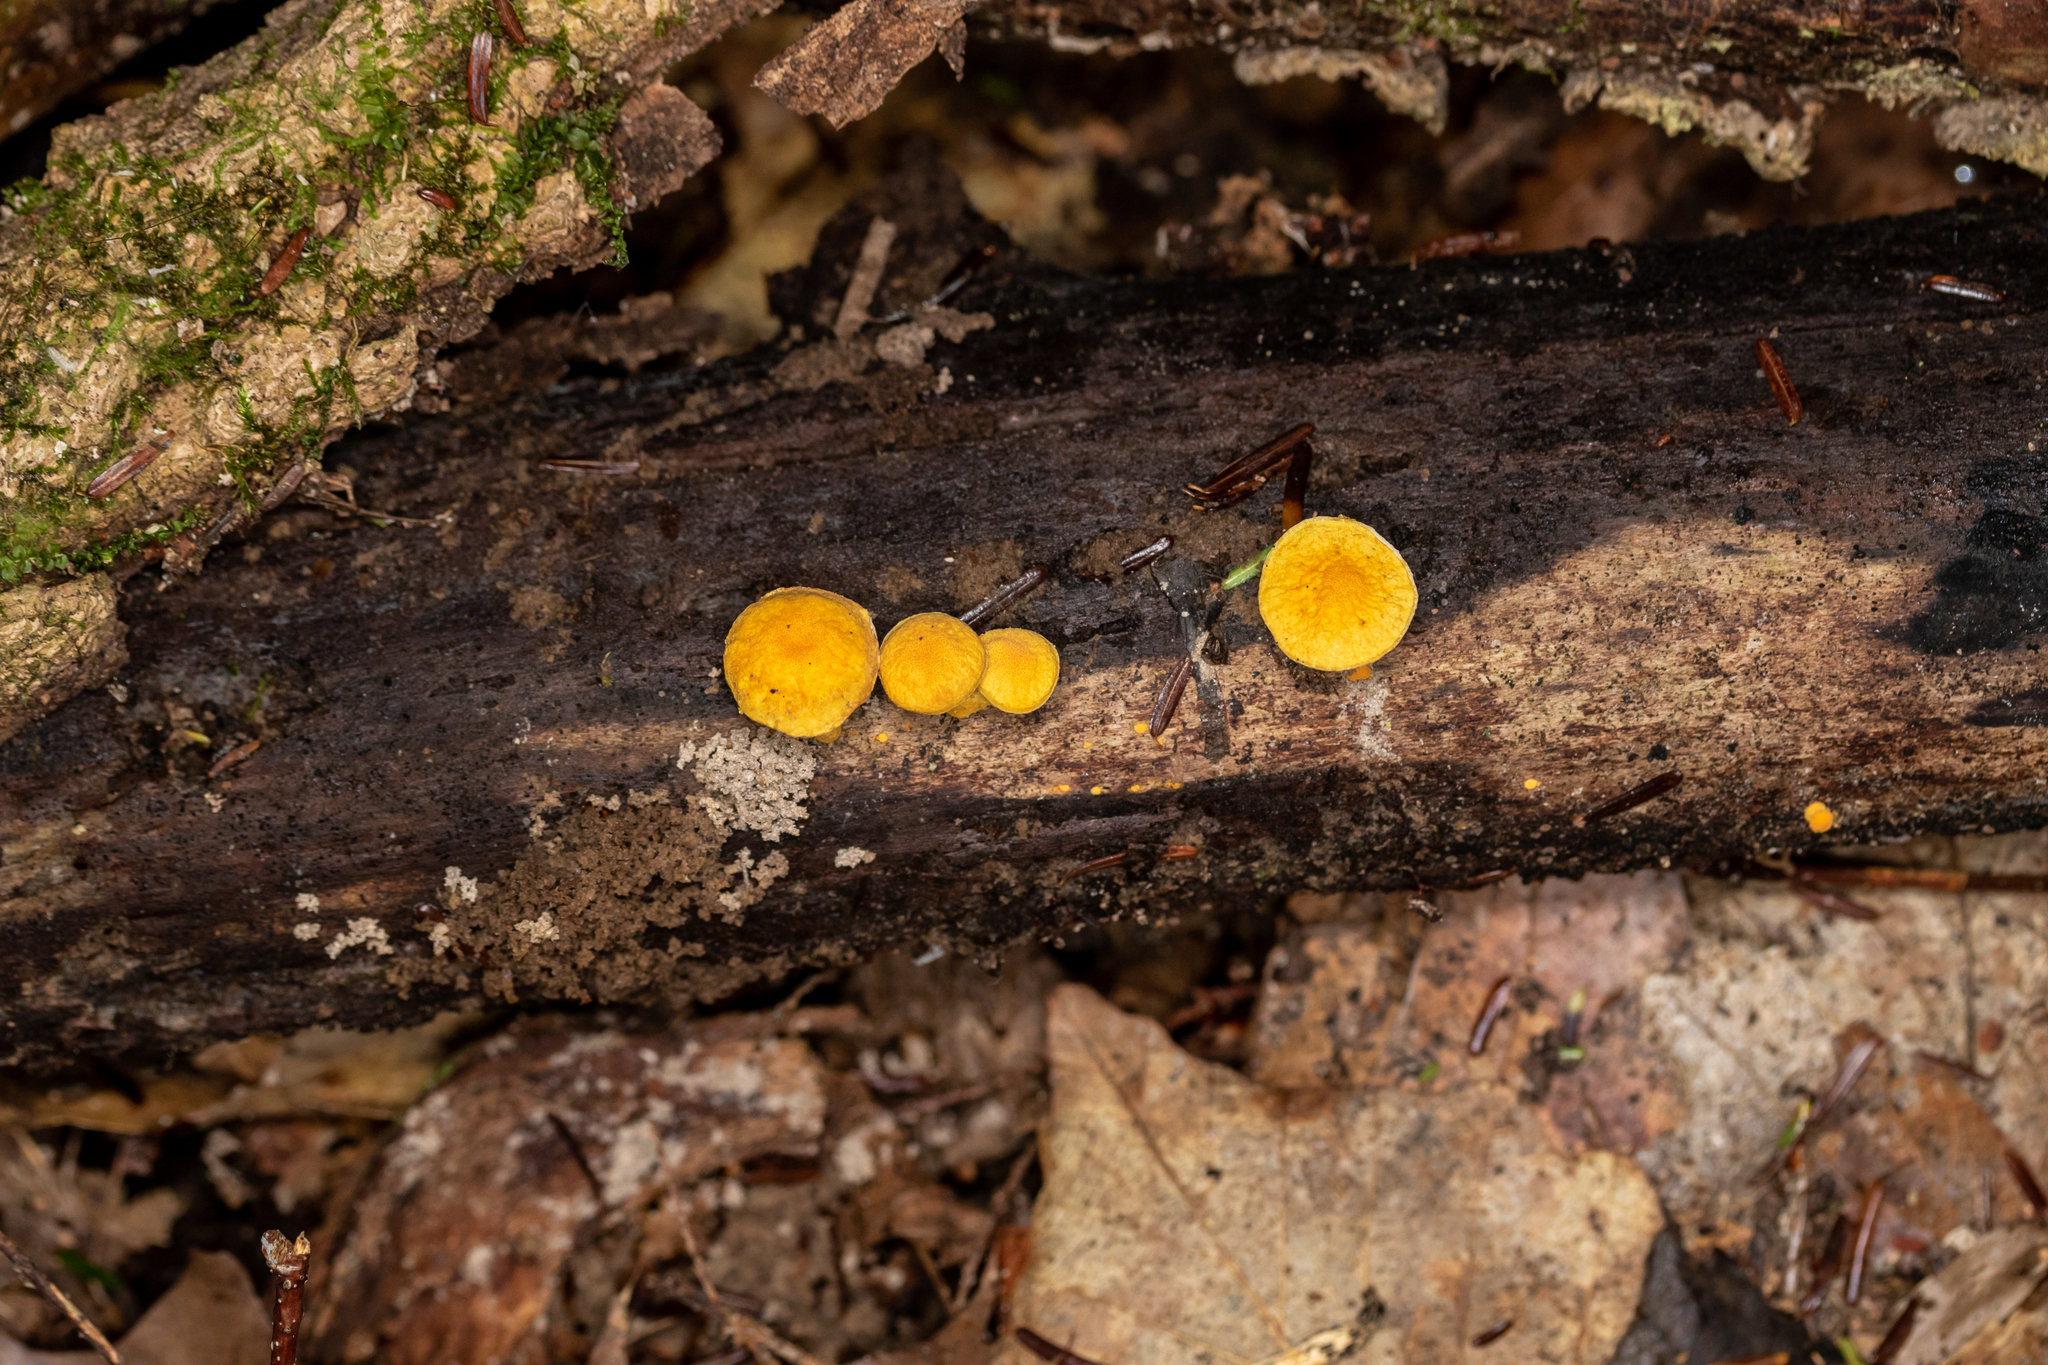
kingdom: Fungi
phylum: Basidiomycota
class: Agaricomycetes
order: Agaricales
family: Physalacriaceae
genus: Cyptotrama
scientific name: Cyptotrama chrysopepla
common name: Golden coincap
